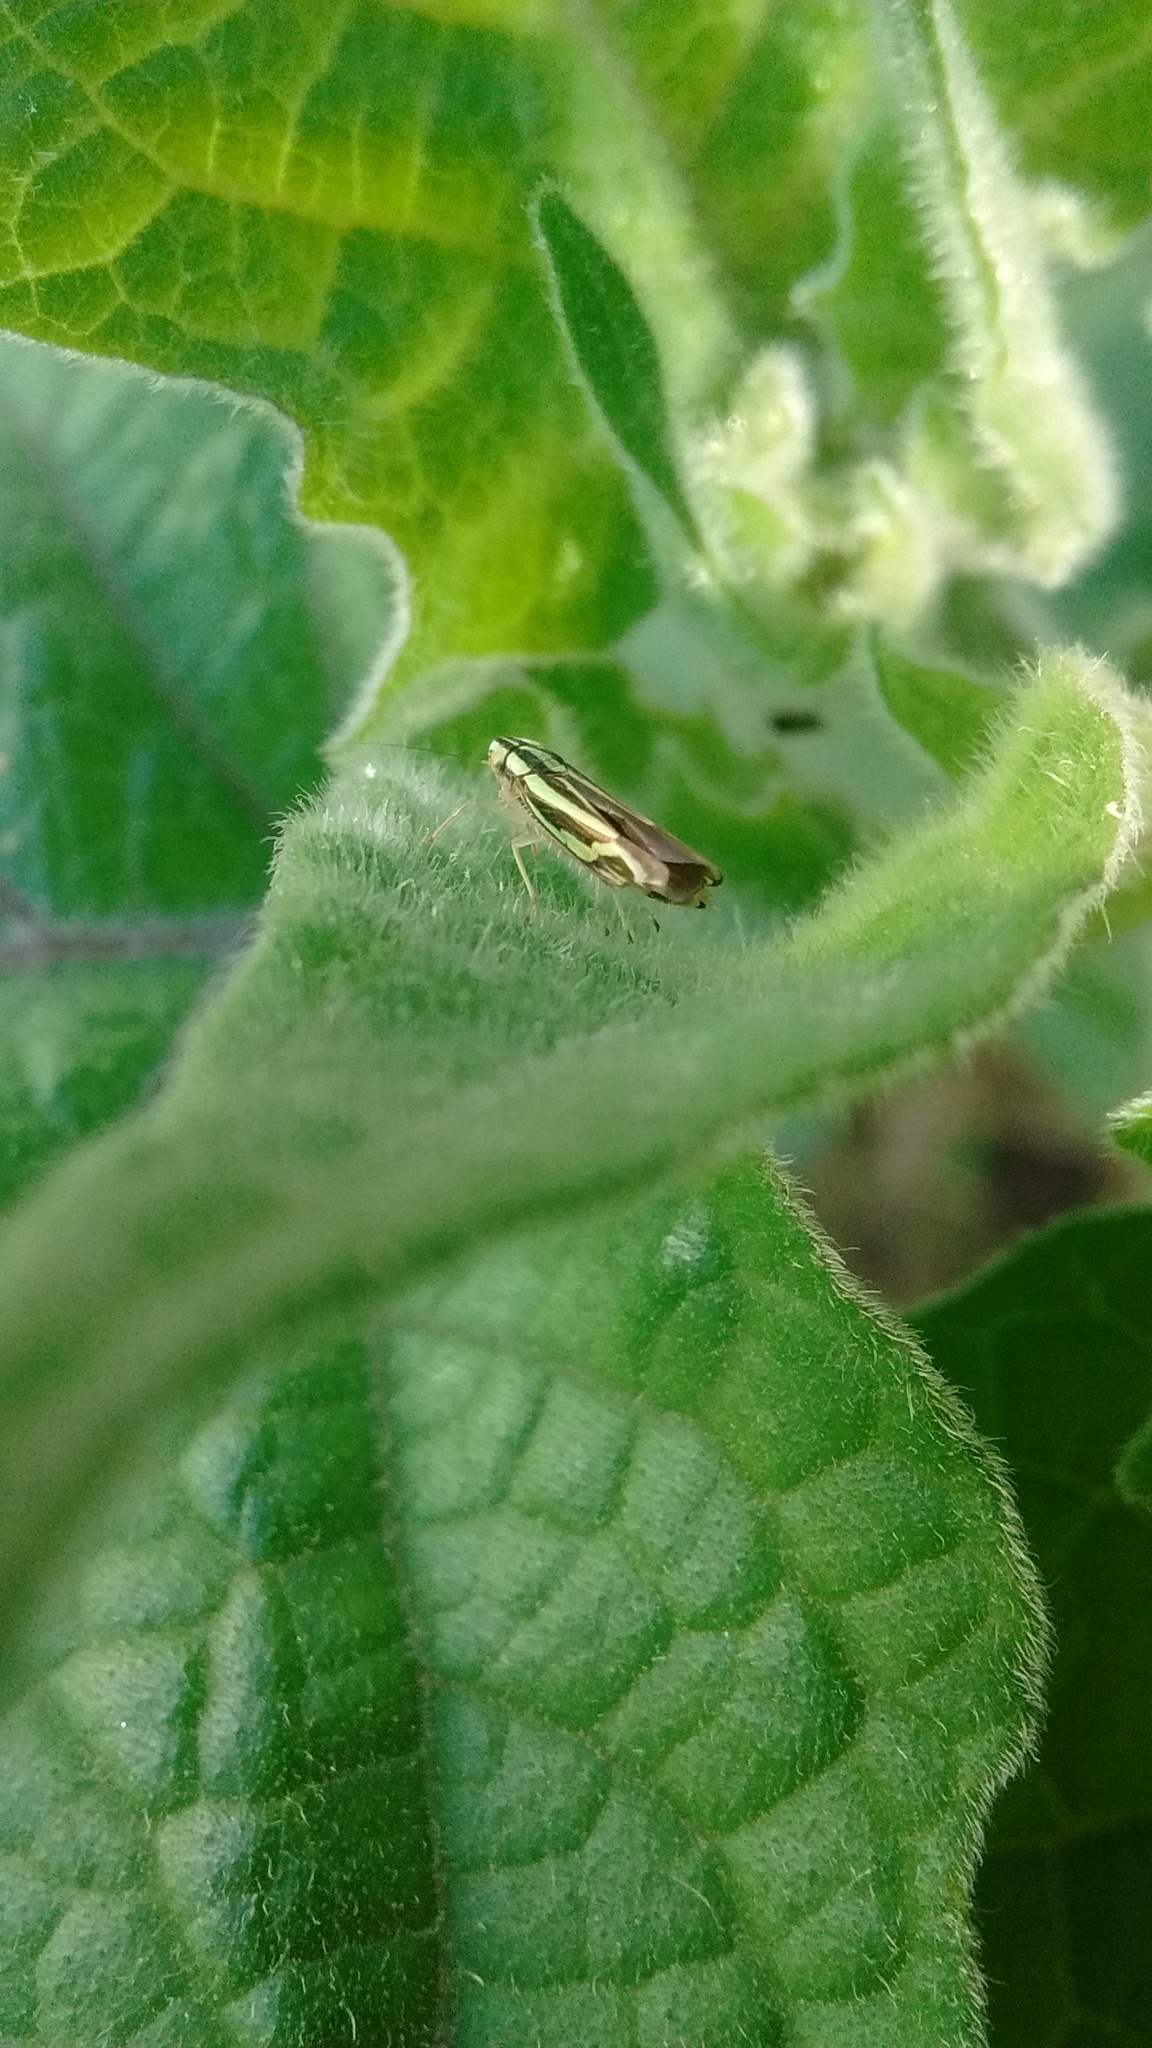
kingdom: Animalia
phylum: Arthropoda
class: Insecta
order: Hemiptera
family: Cicadellidae
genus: Sibovia
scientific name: Sibovia sagata
